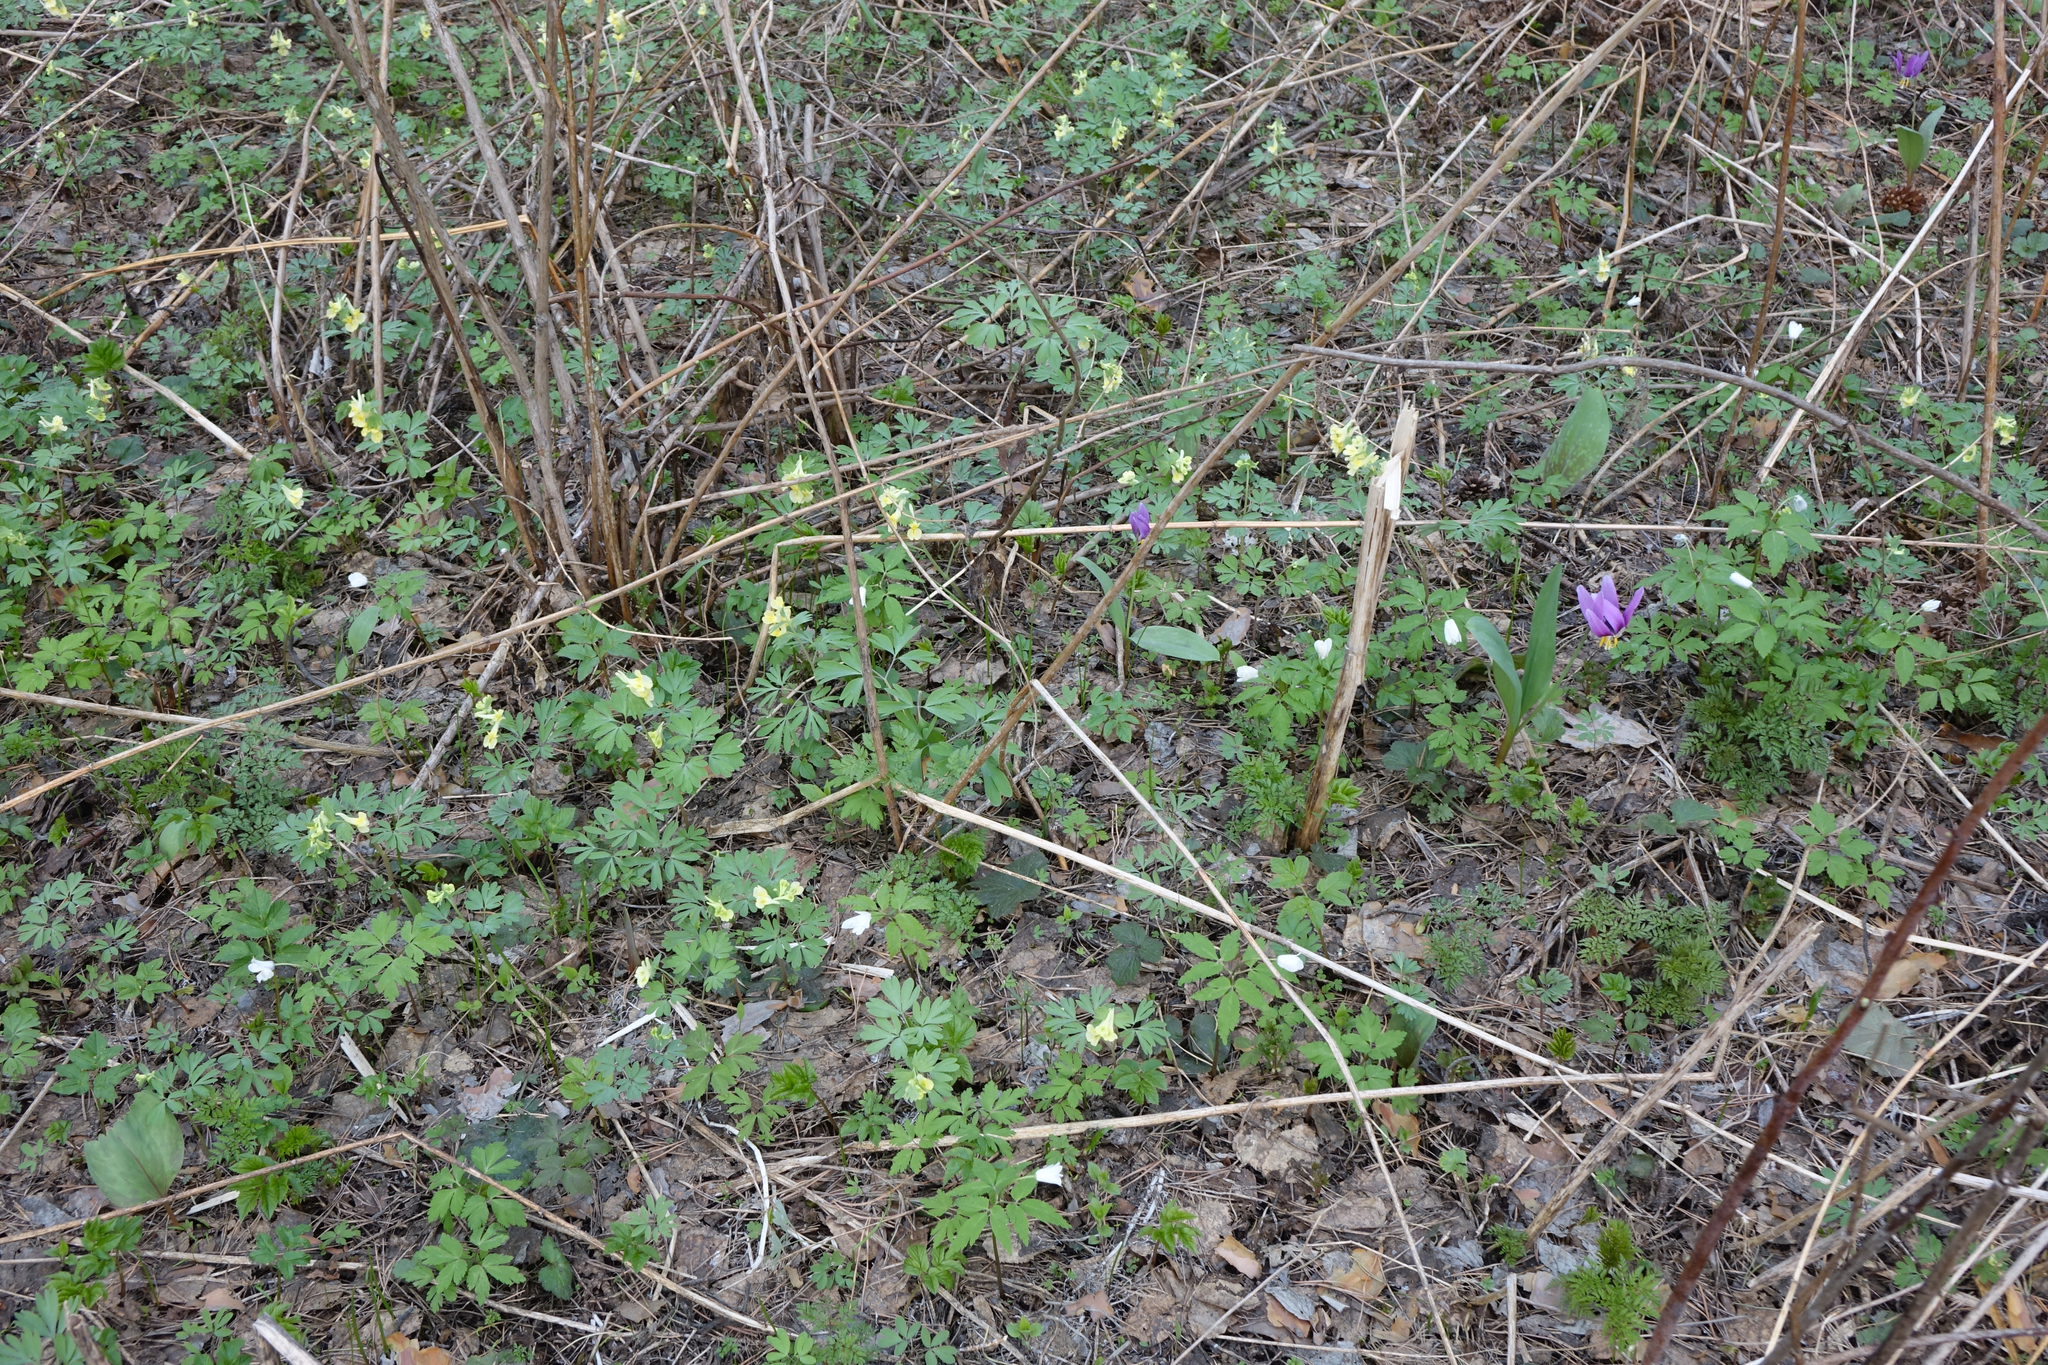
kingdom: Plantae
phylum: Tracheophyta
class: Magnoliopsida
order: Ranunculales
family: Papaveraceae
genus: Corydalis
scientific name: Corydalis bracteata
